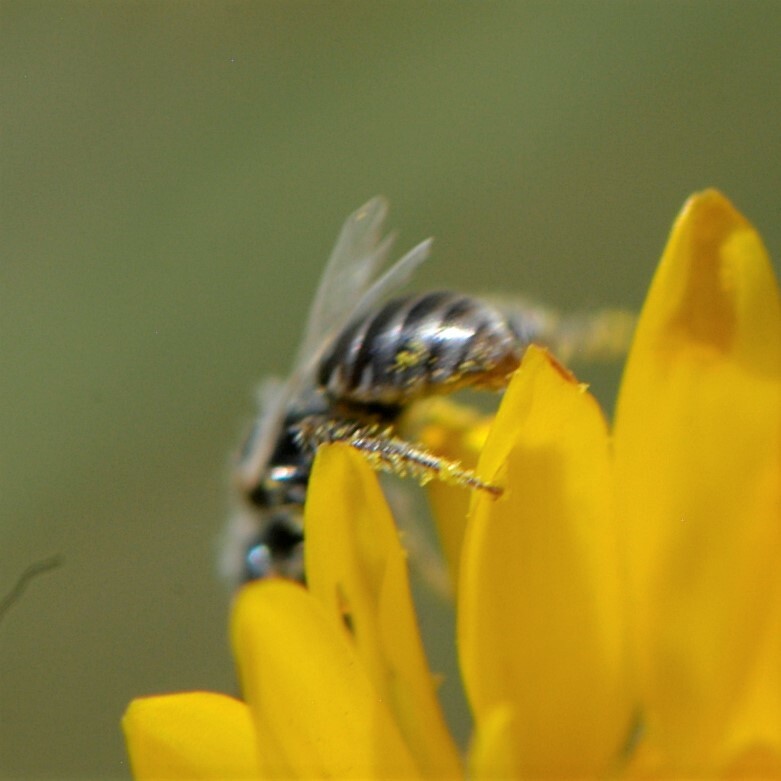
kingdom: Animalia
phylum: Arthropoda
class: Insecta
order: Hymenoptera
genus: Pentaperdita
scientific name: Pentaperdita
